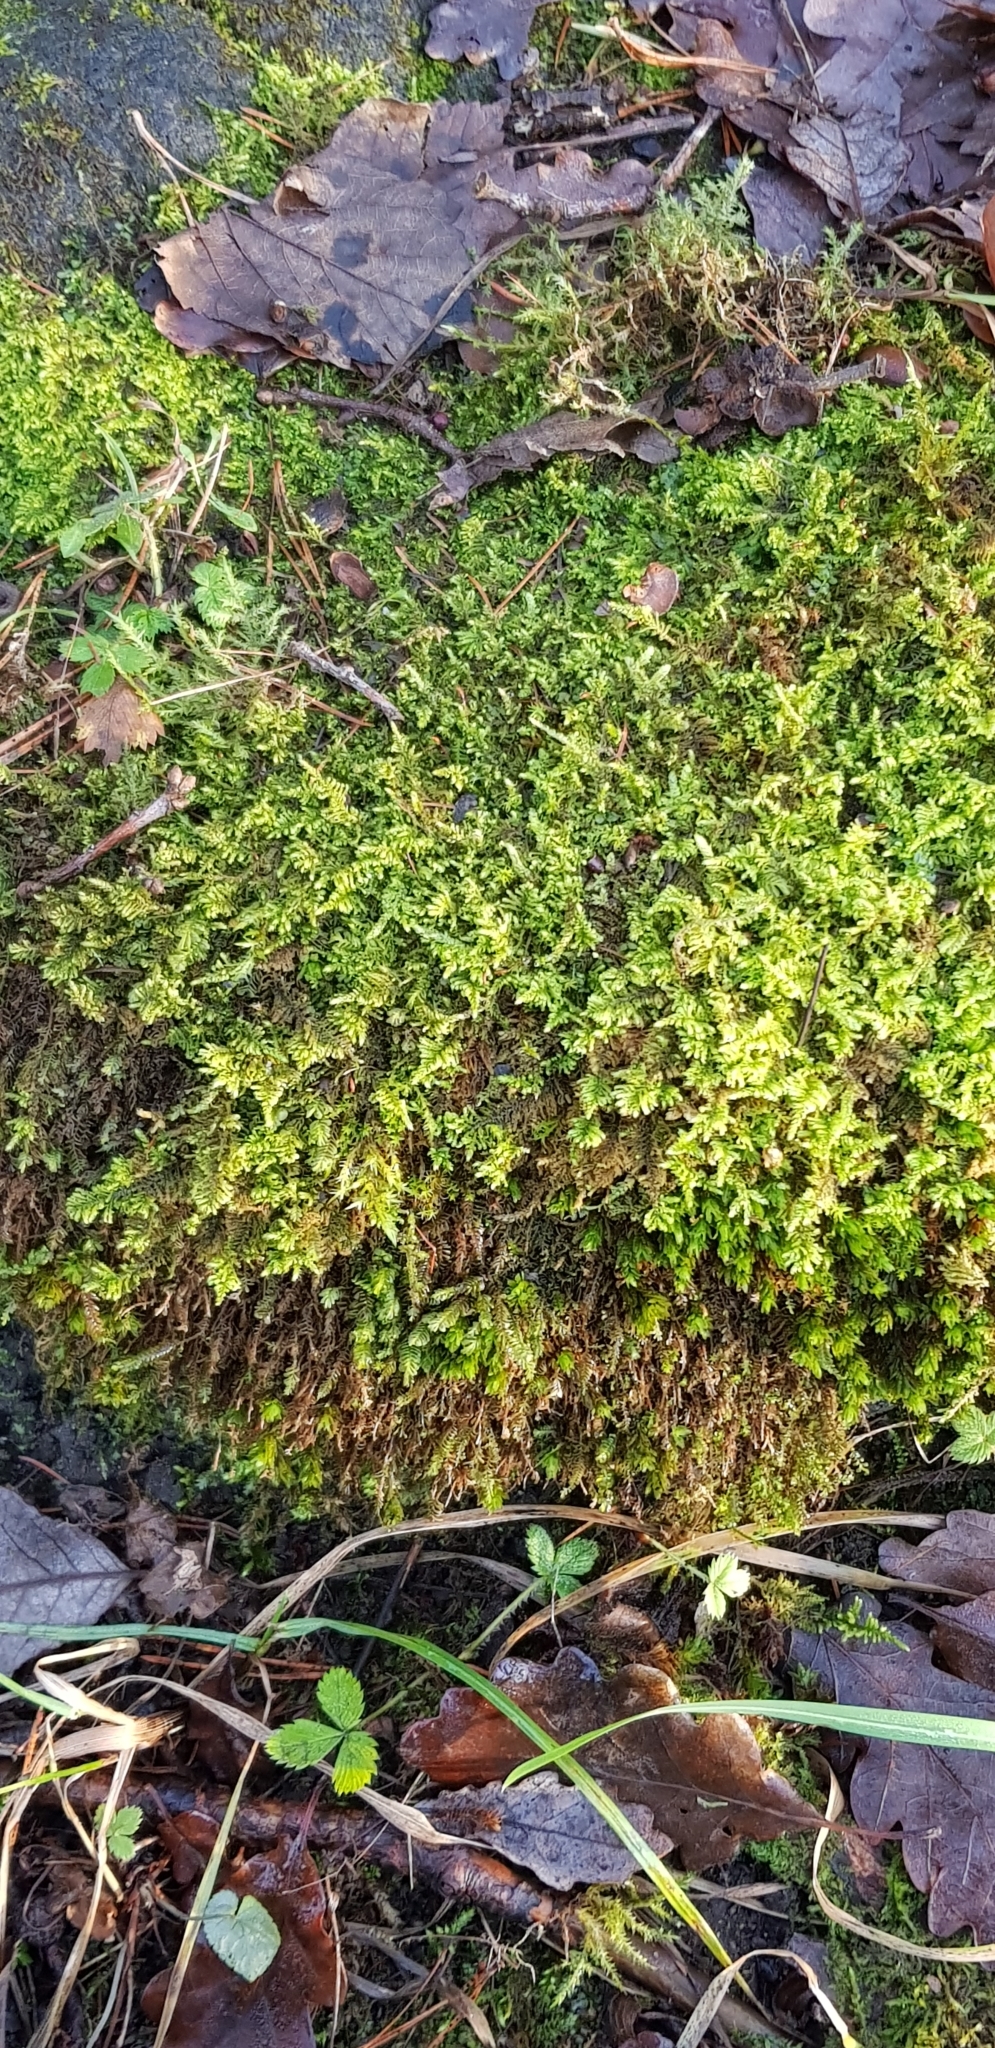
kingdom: Plantae
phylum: Bryophyta
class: Bryopsida
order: Hypnales
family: Myuriaceae
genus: Ctenidium
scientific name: Ctenidium molluscum
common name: Chalk comb-moss
